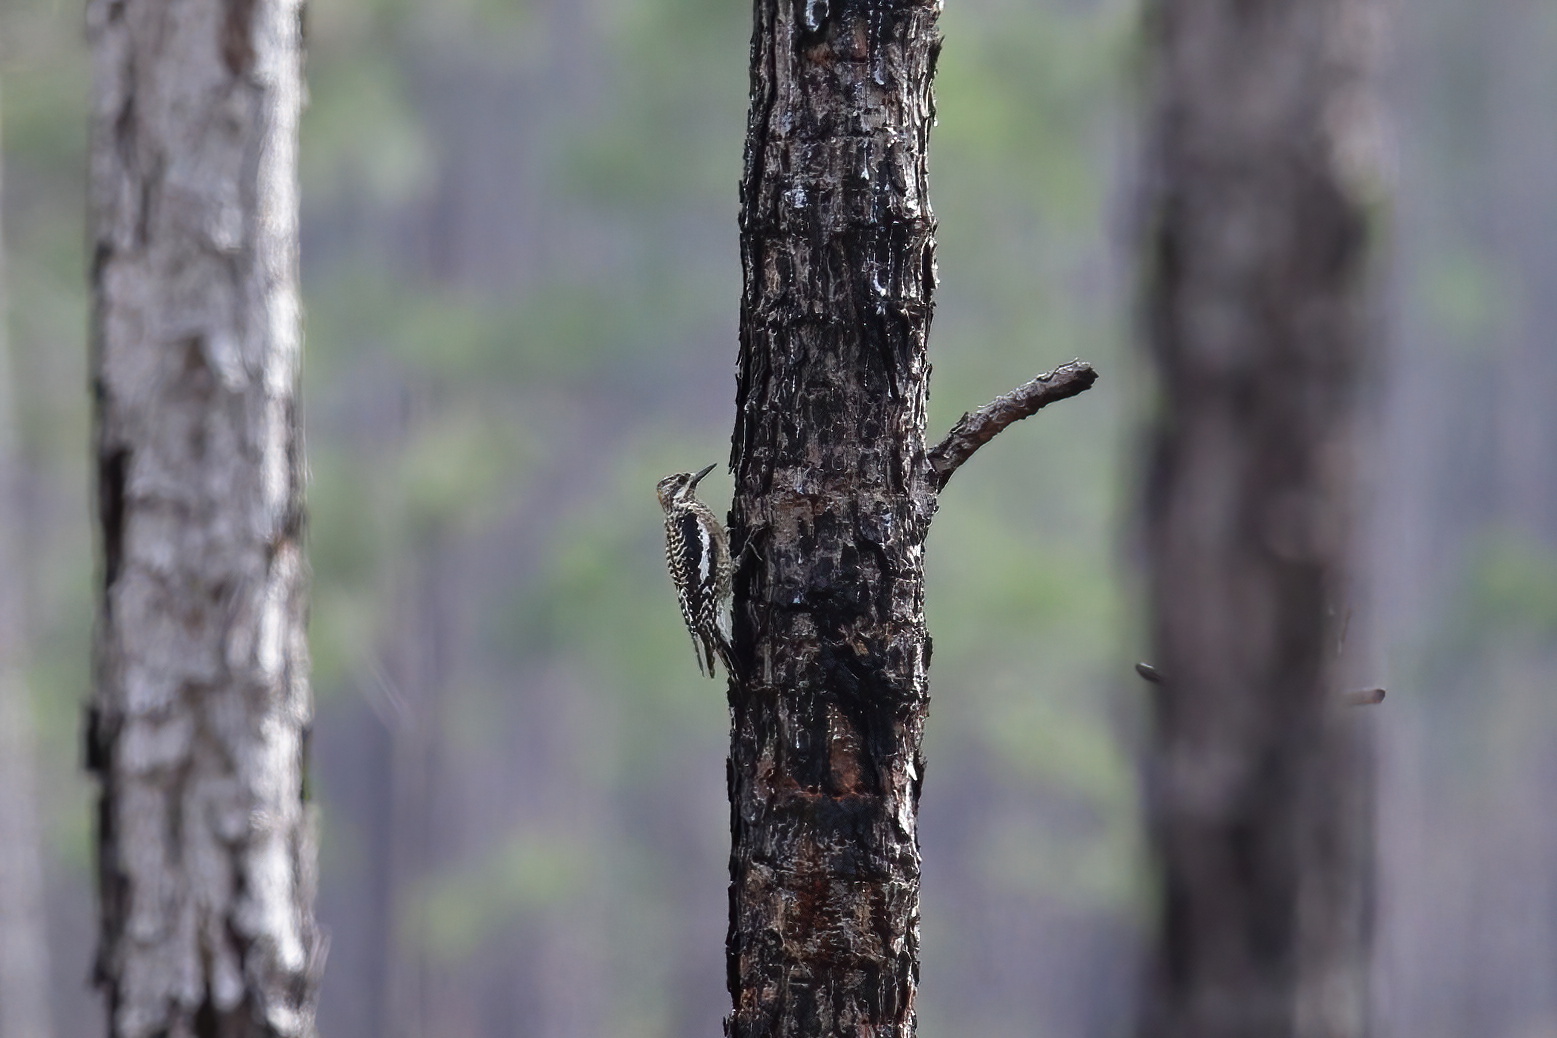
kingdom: Animalia
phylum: Chordata
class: Aves
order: Piciformes
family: Picidae
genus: Sphyrapicus
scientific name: Sphyrapicus varius
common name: Yellow-bellied sapsucker
